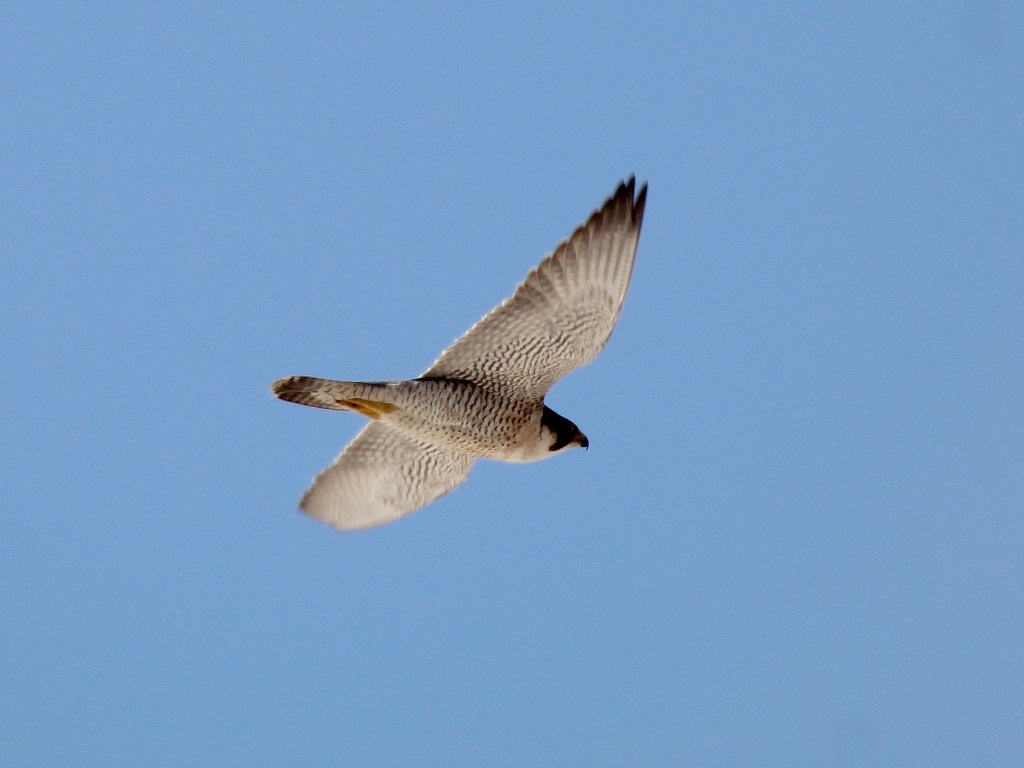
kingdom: Animalia
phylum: Chordata
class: Aves
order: Falconiformes
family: Falconidae
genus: Falco
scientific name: Falco peregrinus
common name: Peregrine falcon
